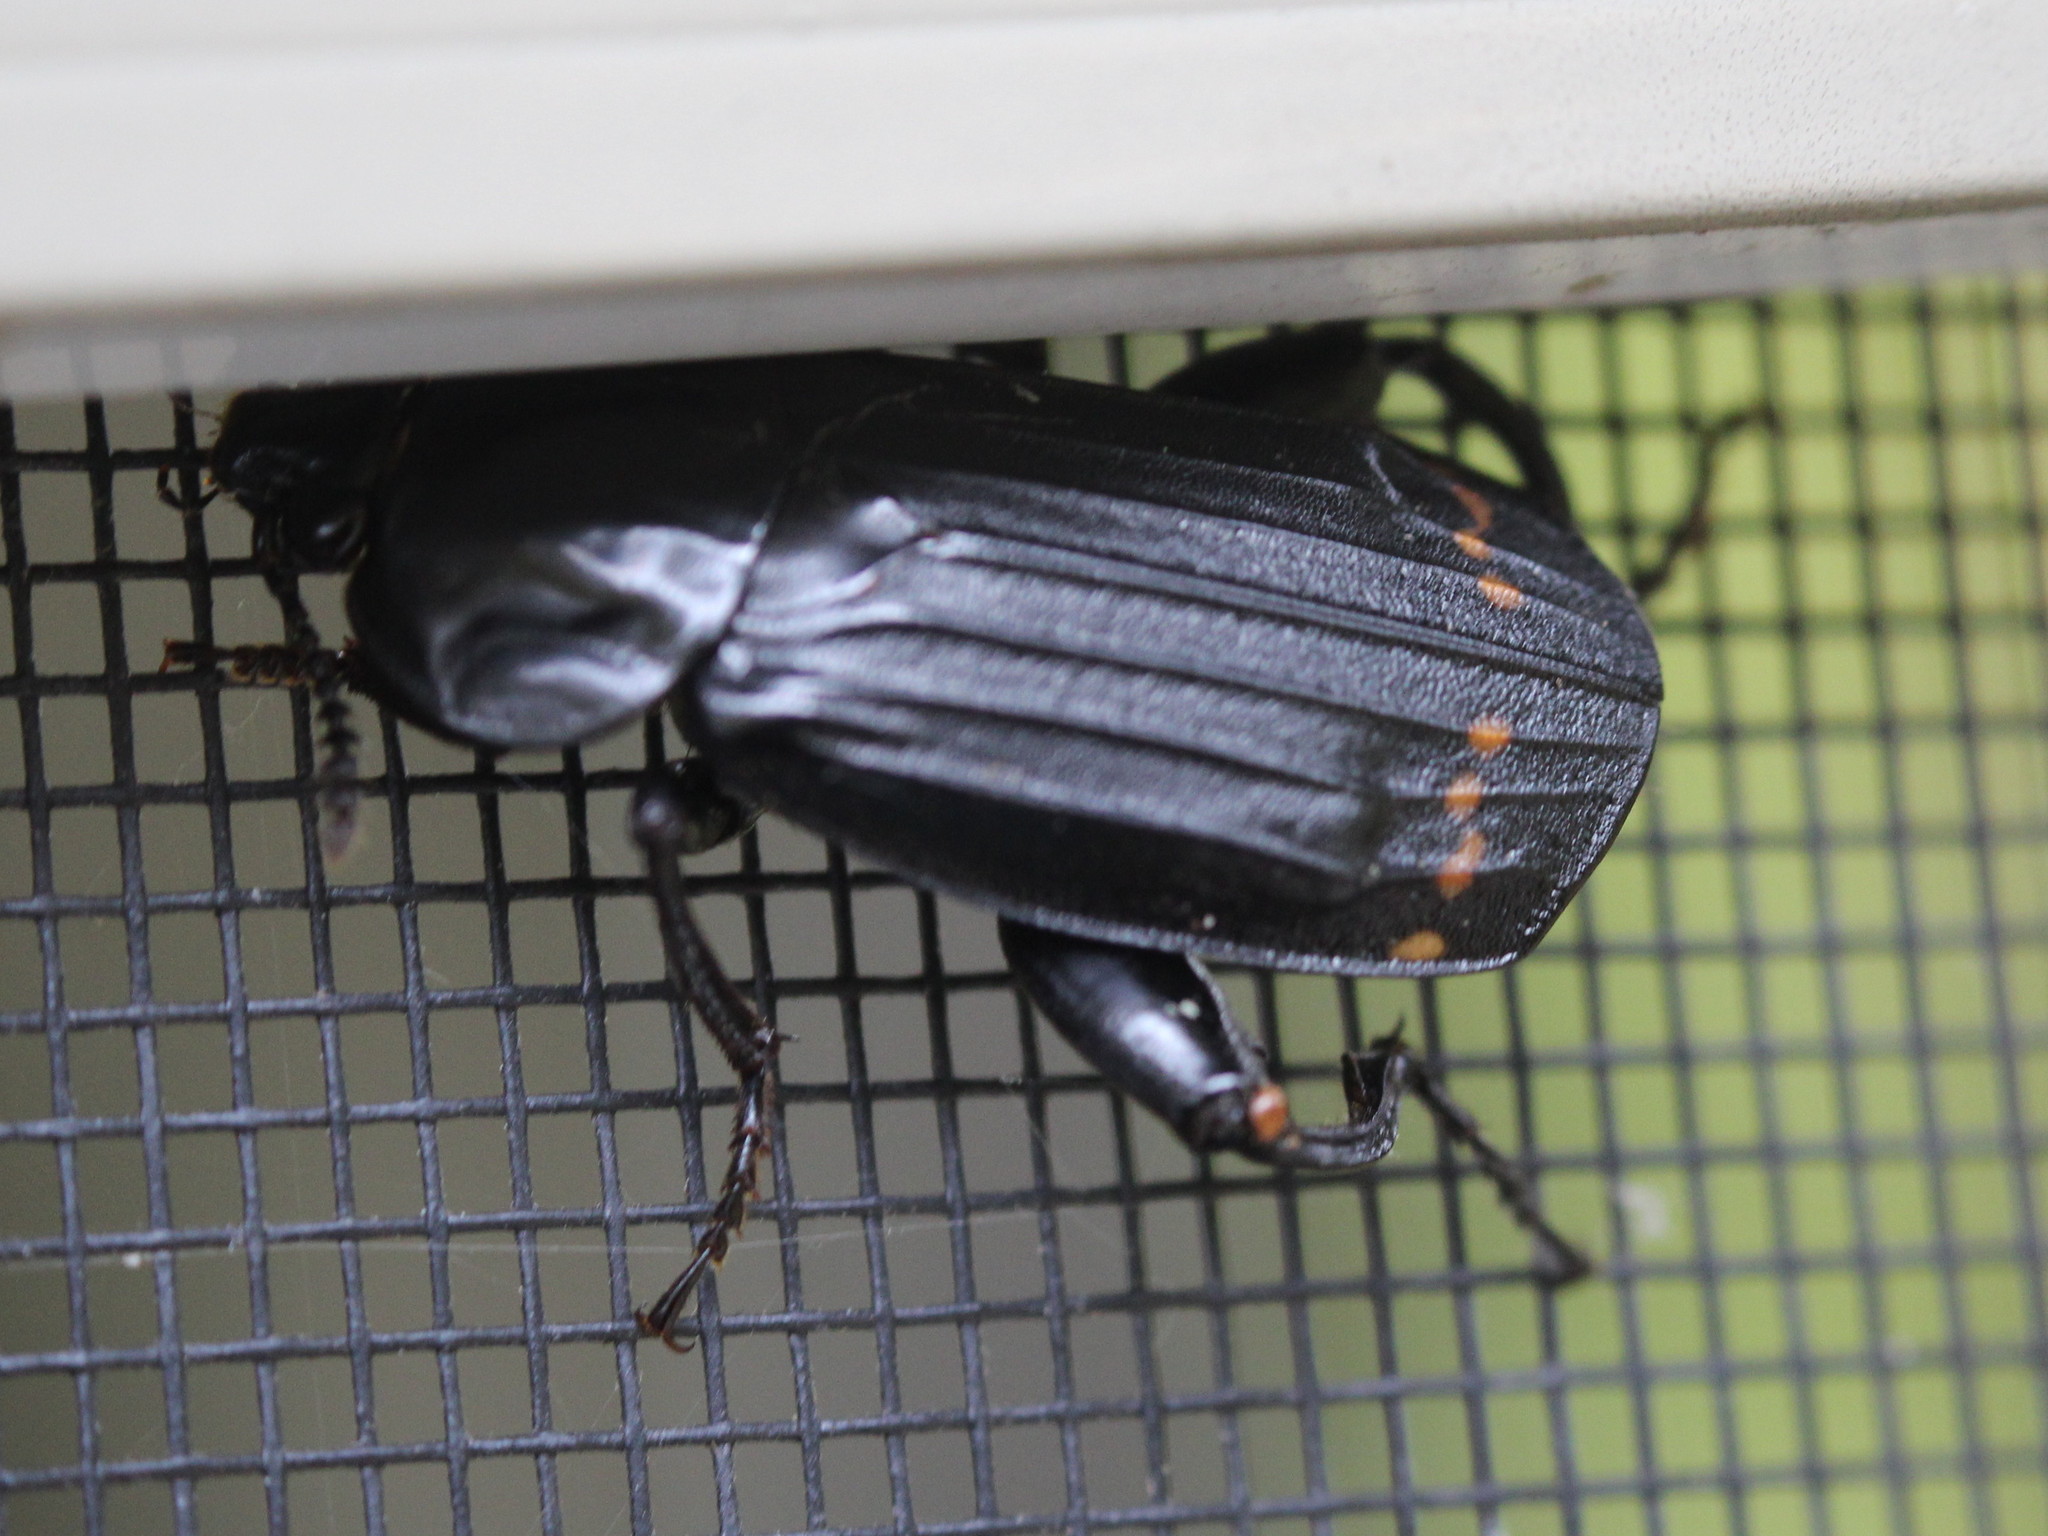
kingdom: Animalia
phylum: Arthropoda
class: Insecta
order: Coleoptera
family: Staphylinidae
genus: Necrodes
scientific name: Necrodes surinamensis
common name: Red-lined carrion beetle
